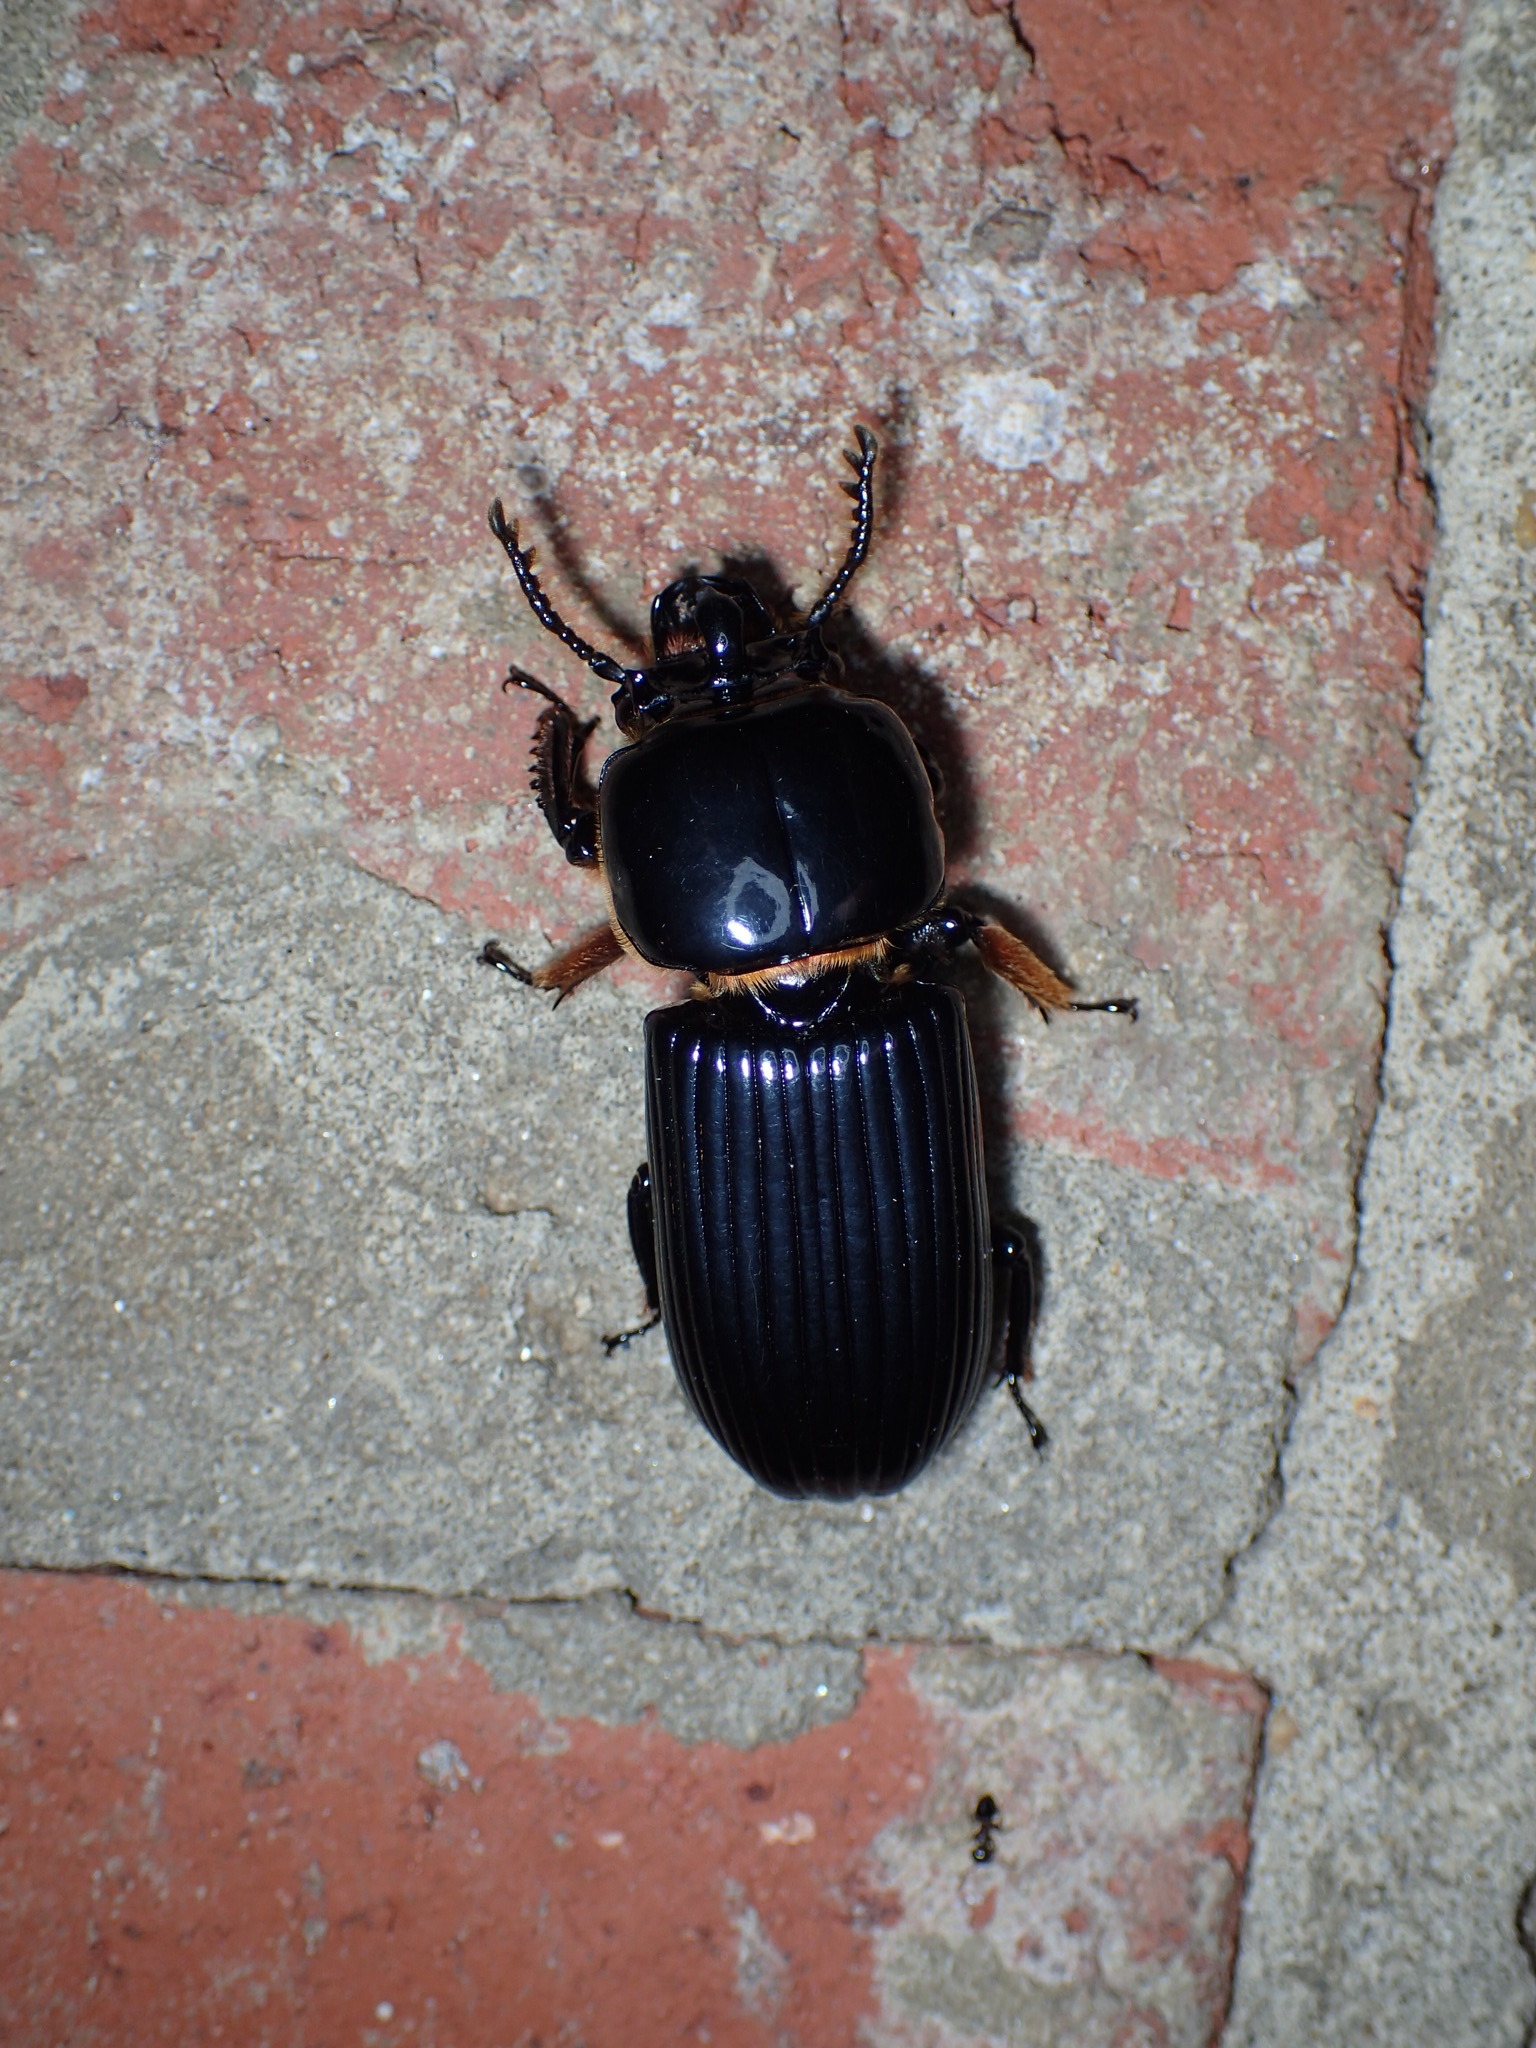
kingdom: Animalia
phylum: Arthropoda
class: Insecta
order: Coleoptera
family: Passalidae
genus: Odontotaenius
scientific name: Odontotaenius disjunctus
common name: Patent leather beetle
